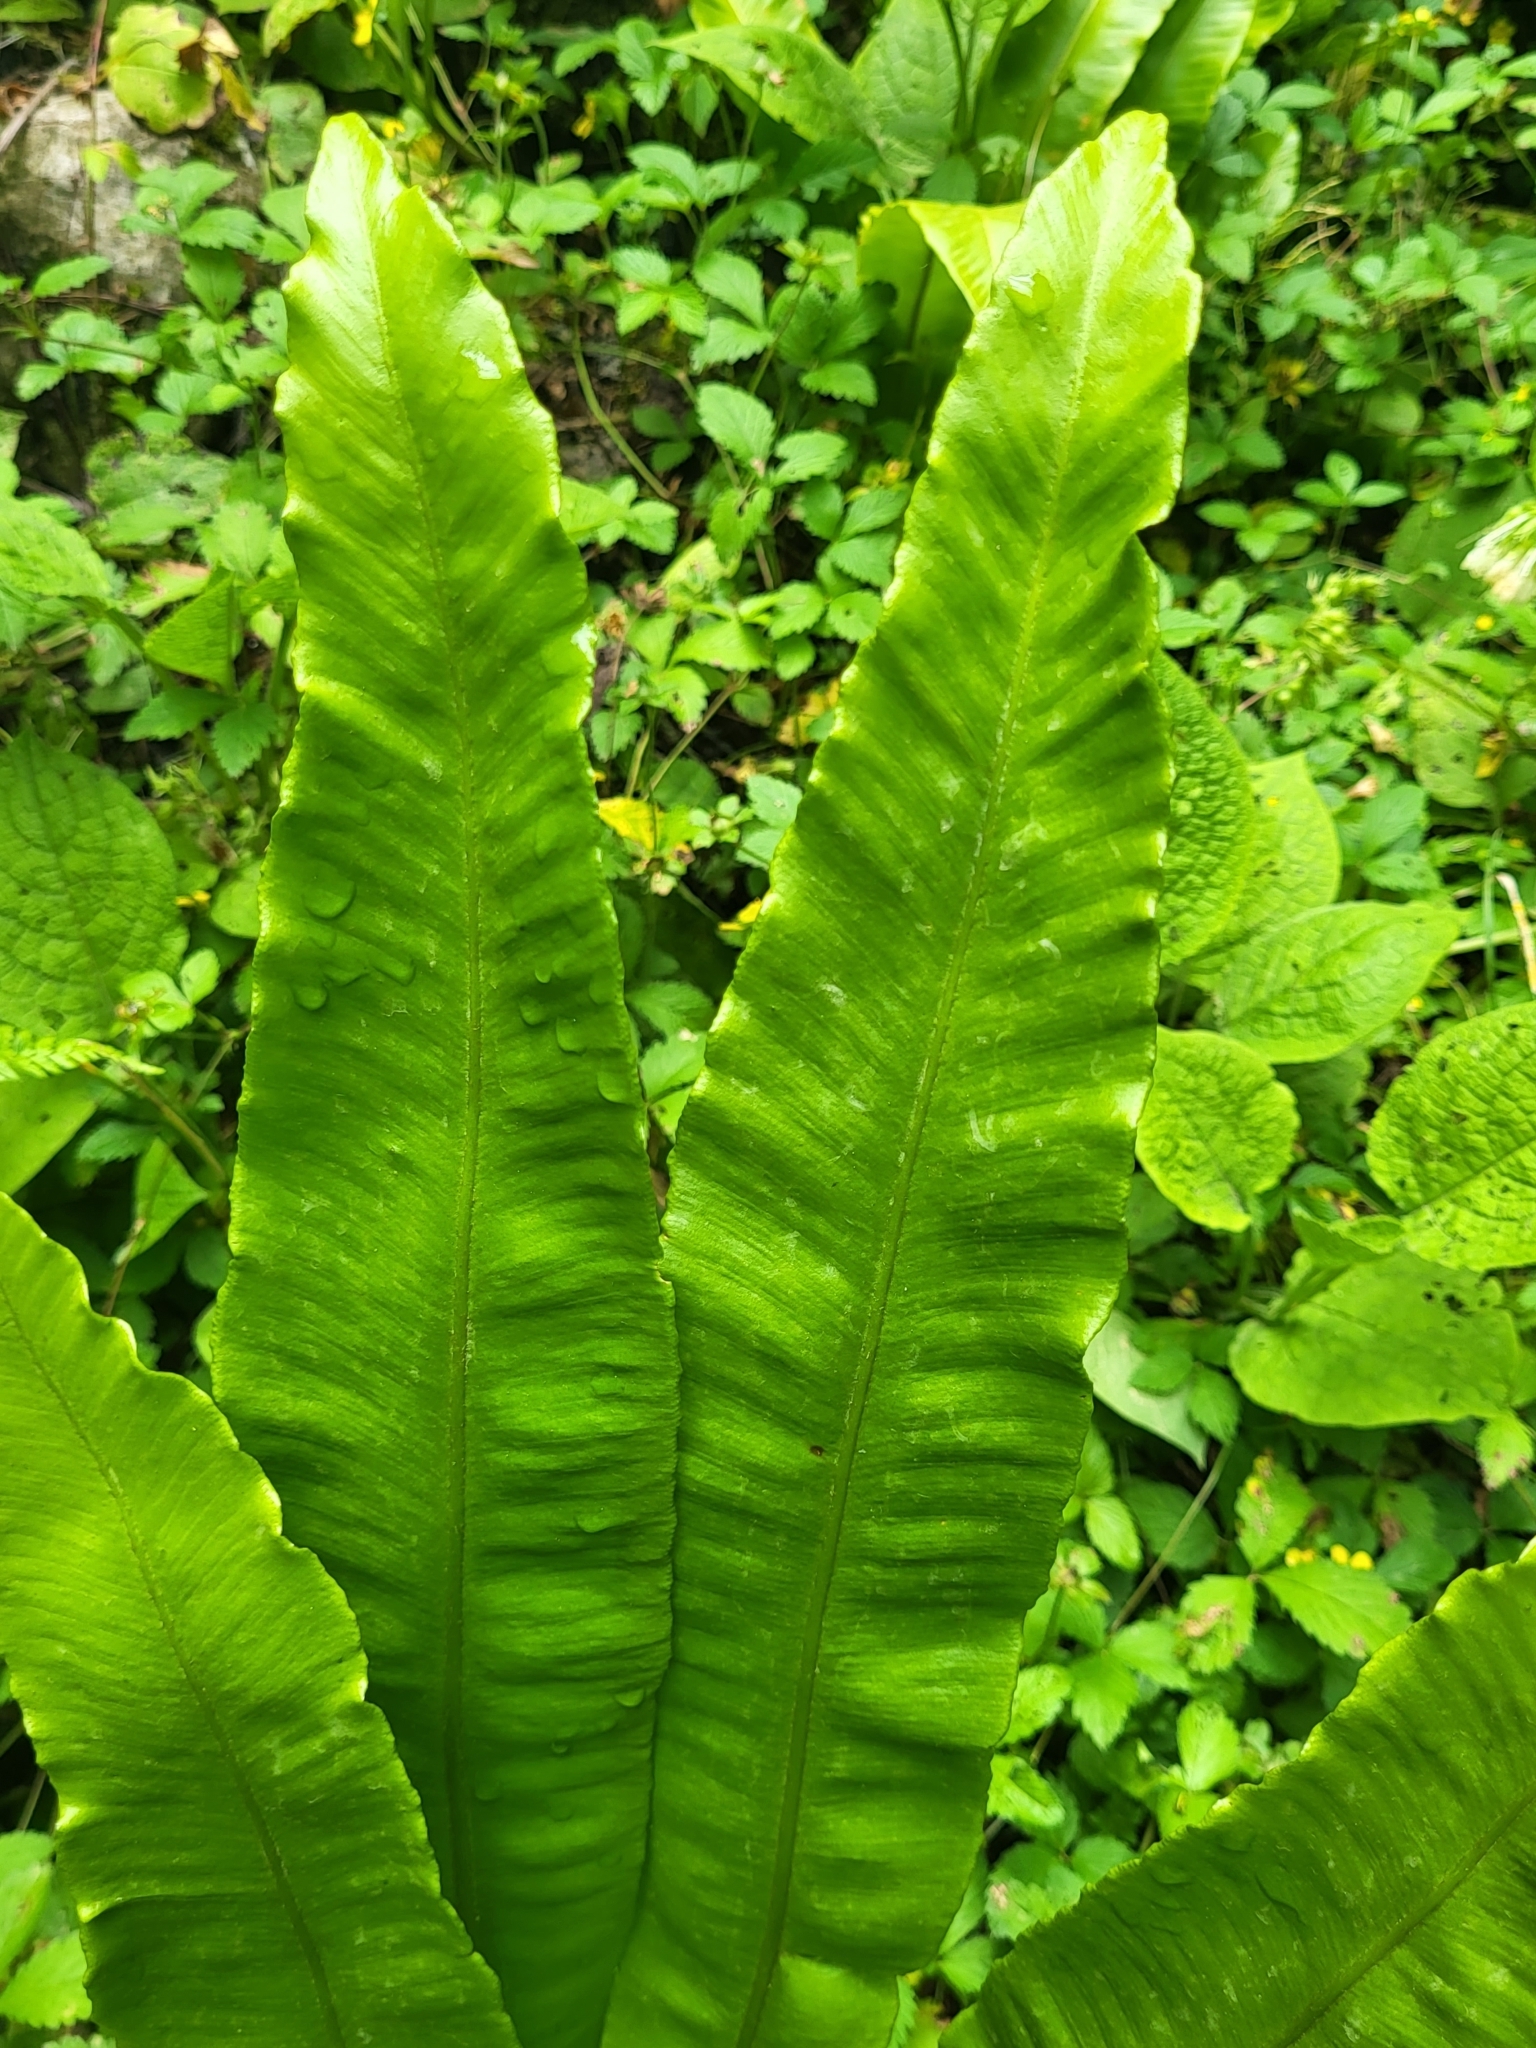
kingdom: Plantae
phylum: Tracheophyta
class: Polypodiopsida
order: Polypodiales
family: Aspleniaceae
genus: Asplenium
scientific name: Asplenium scolopendrium
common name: Hart's-tongue fern
